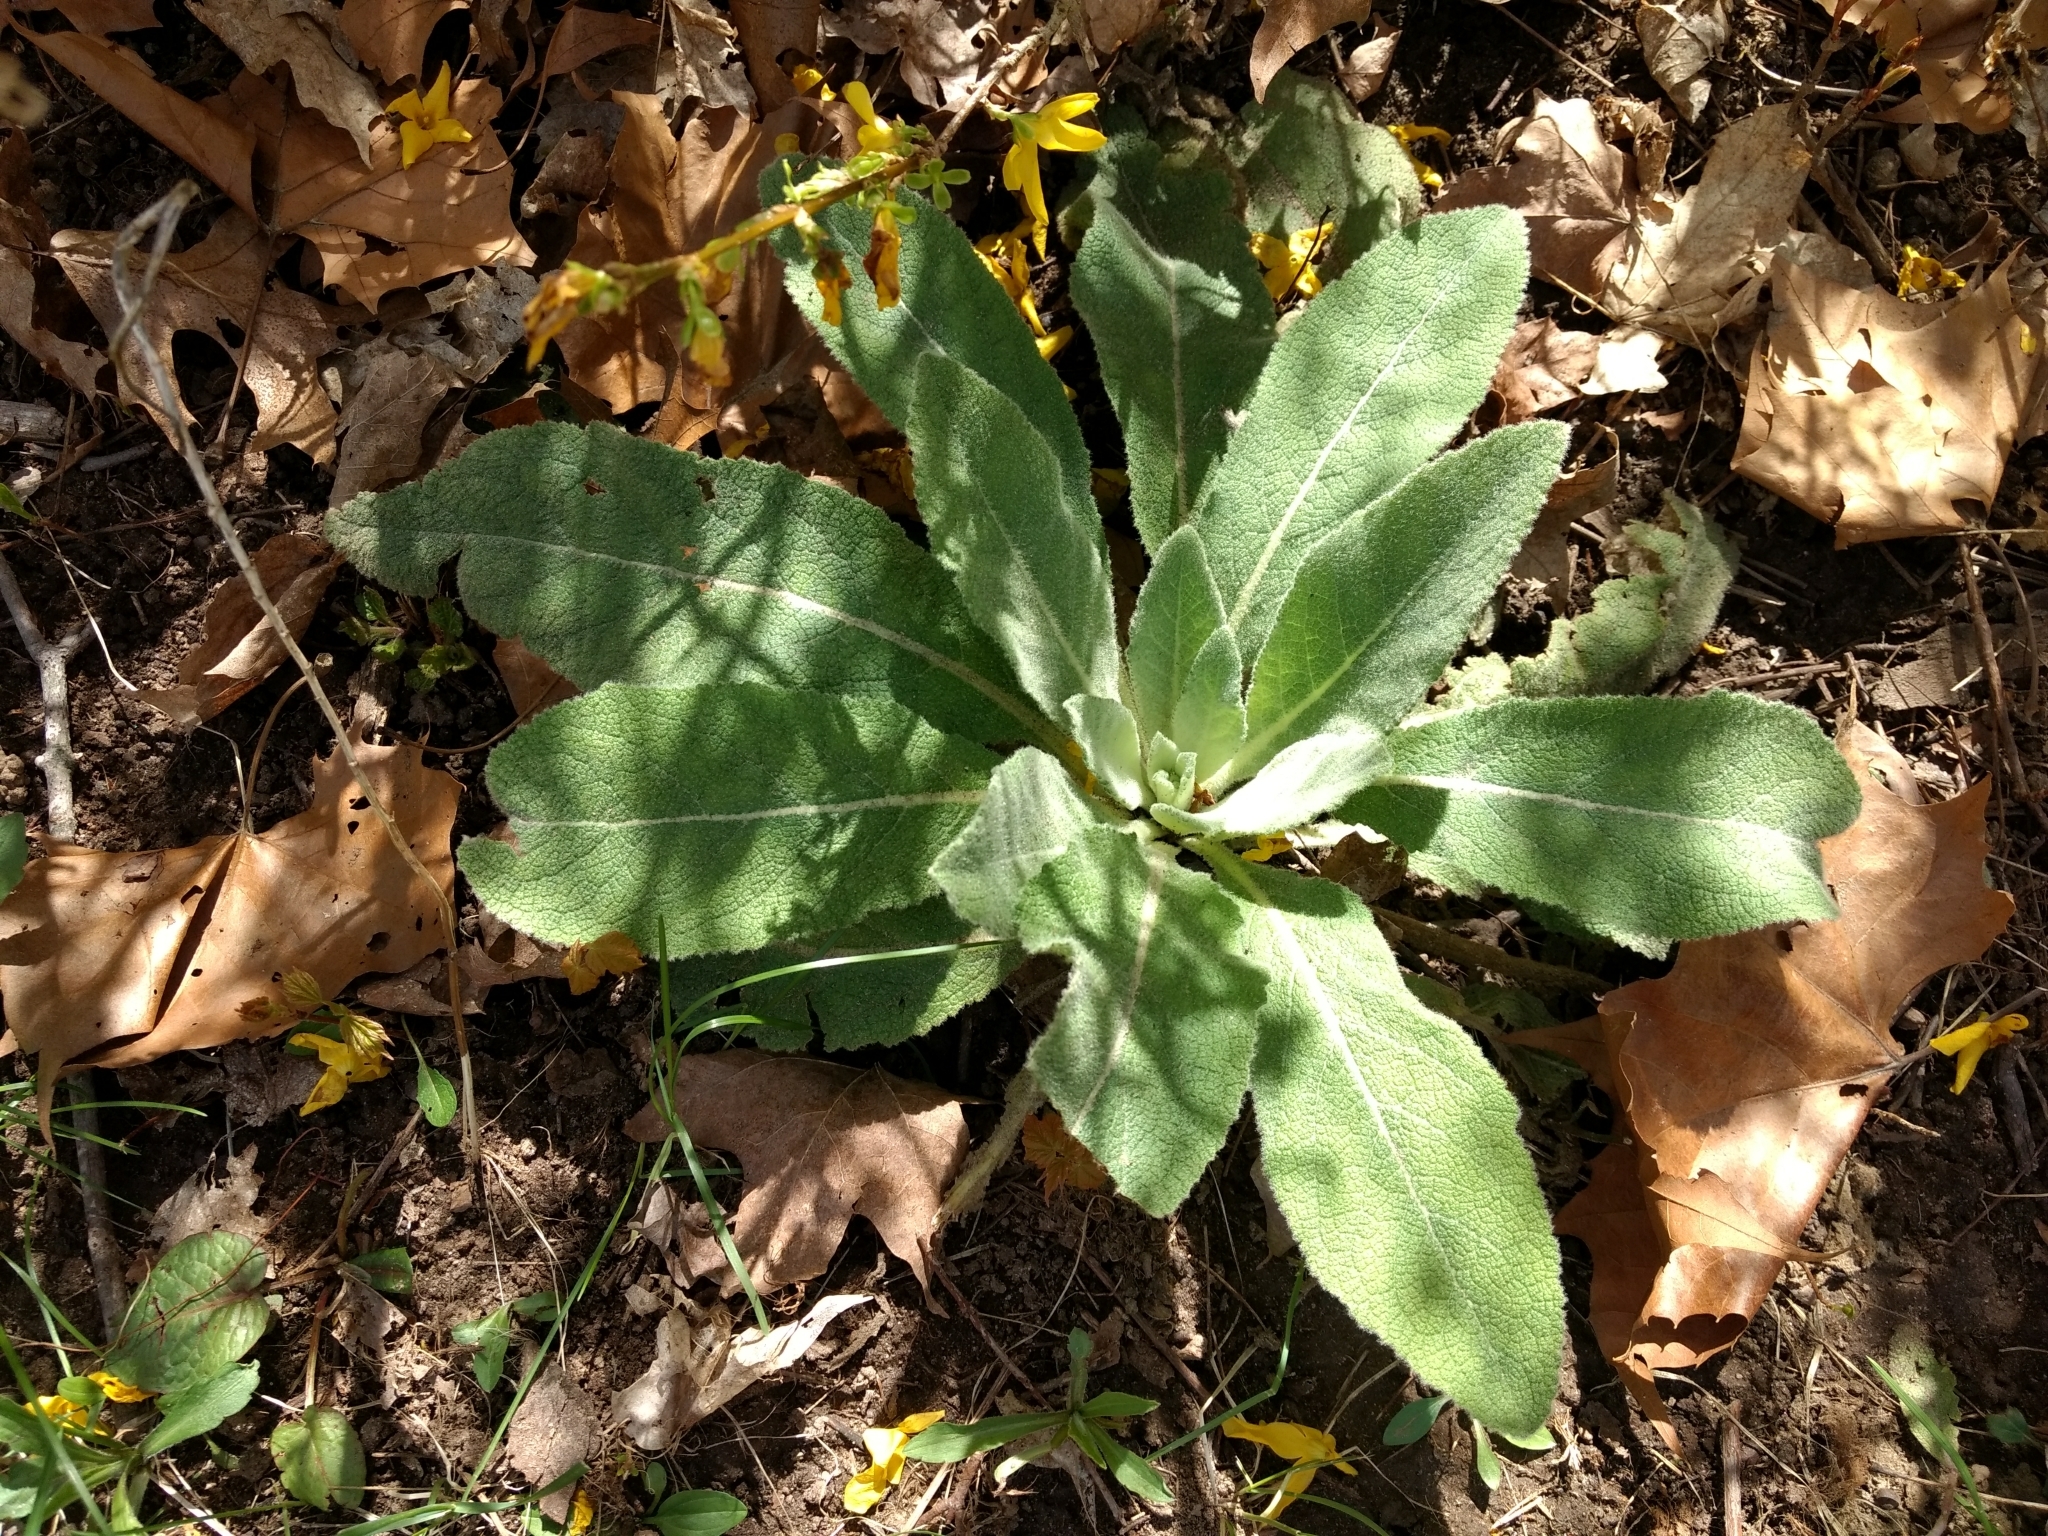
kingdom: Plantae
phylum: Tracheophyta
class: Magnoliopsida
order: Lamiales
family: Scrophulariaceae
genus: Verbascum
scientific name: Verbascum thapsus
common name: Common mullein
